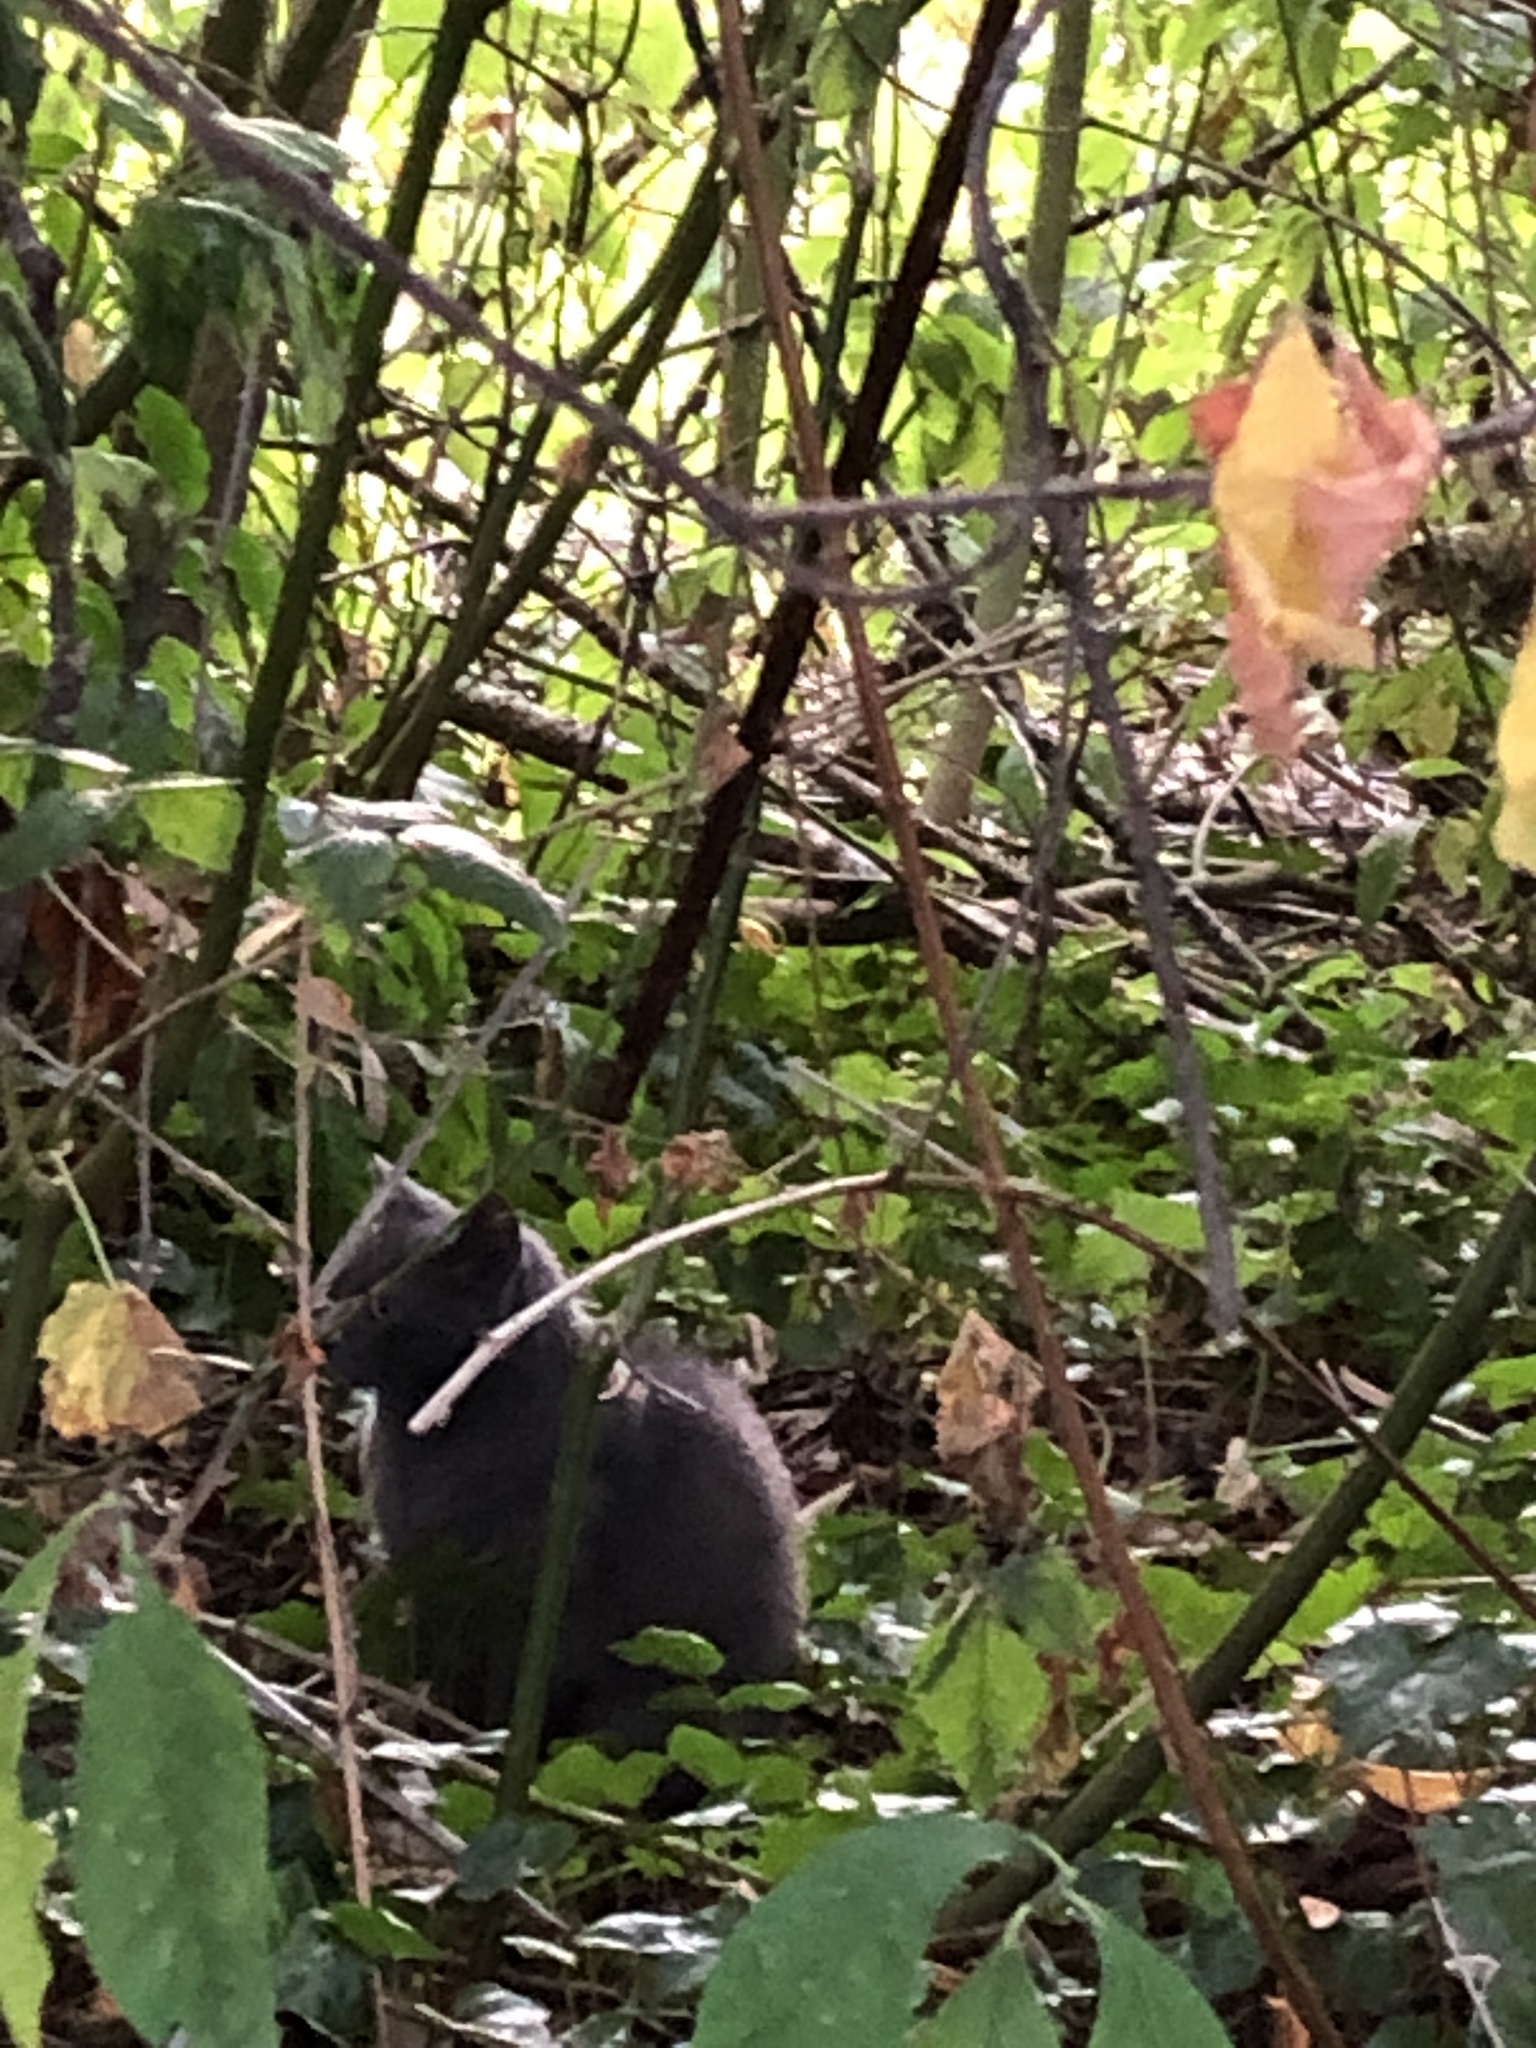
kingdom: Animalia
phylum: Chordata
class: Mammalia
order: Carnivora
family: Felidae
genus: Felis
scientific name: Felis catus
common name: Domestic cat
